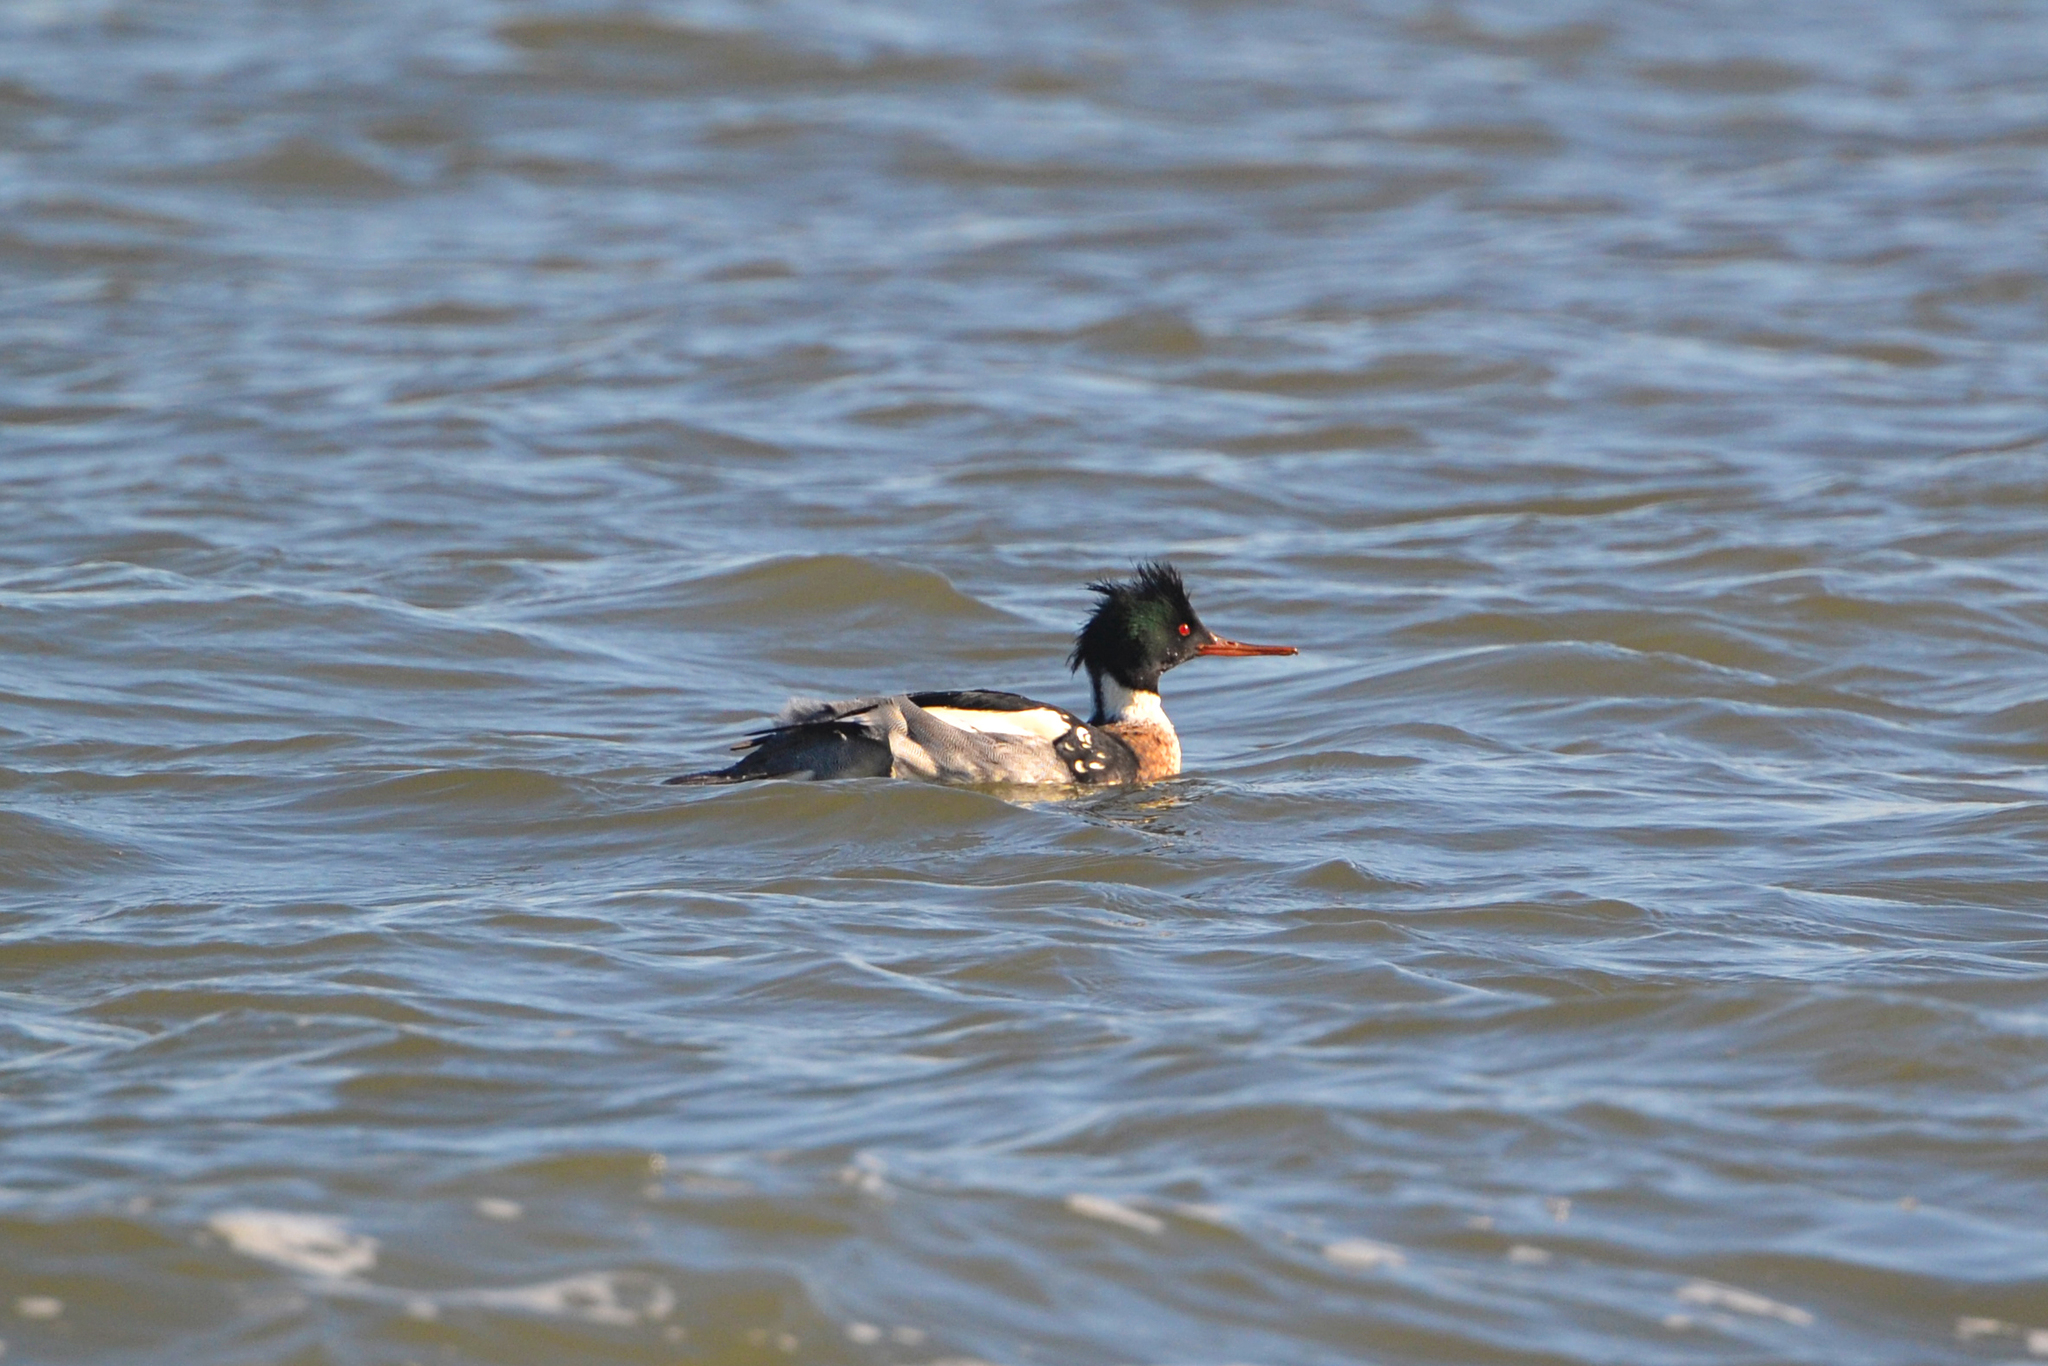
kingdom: Animalia
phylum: Chordata
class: Aves
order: Anseriformes
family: Anatidae
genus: Mergus
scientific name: Mergus serrator
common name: Red-breasted merganser
